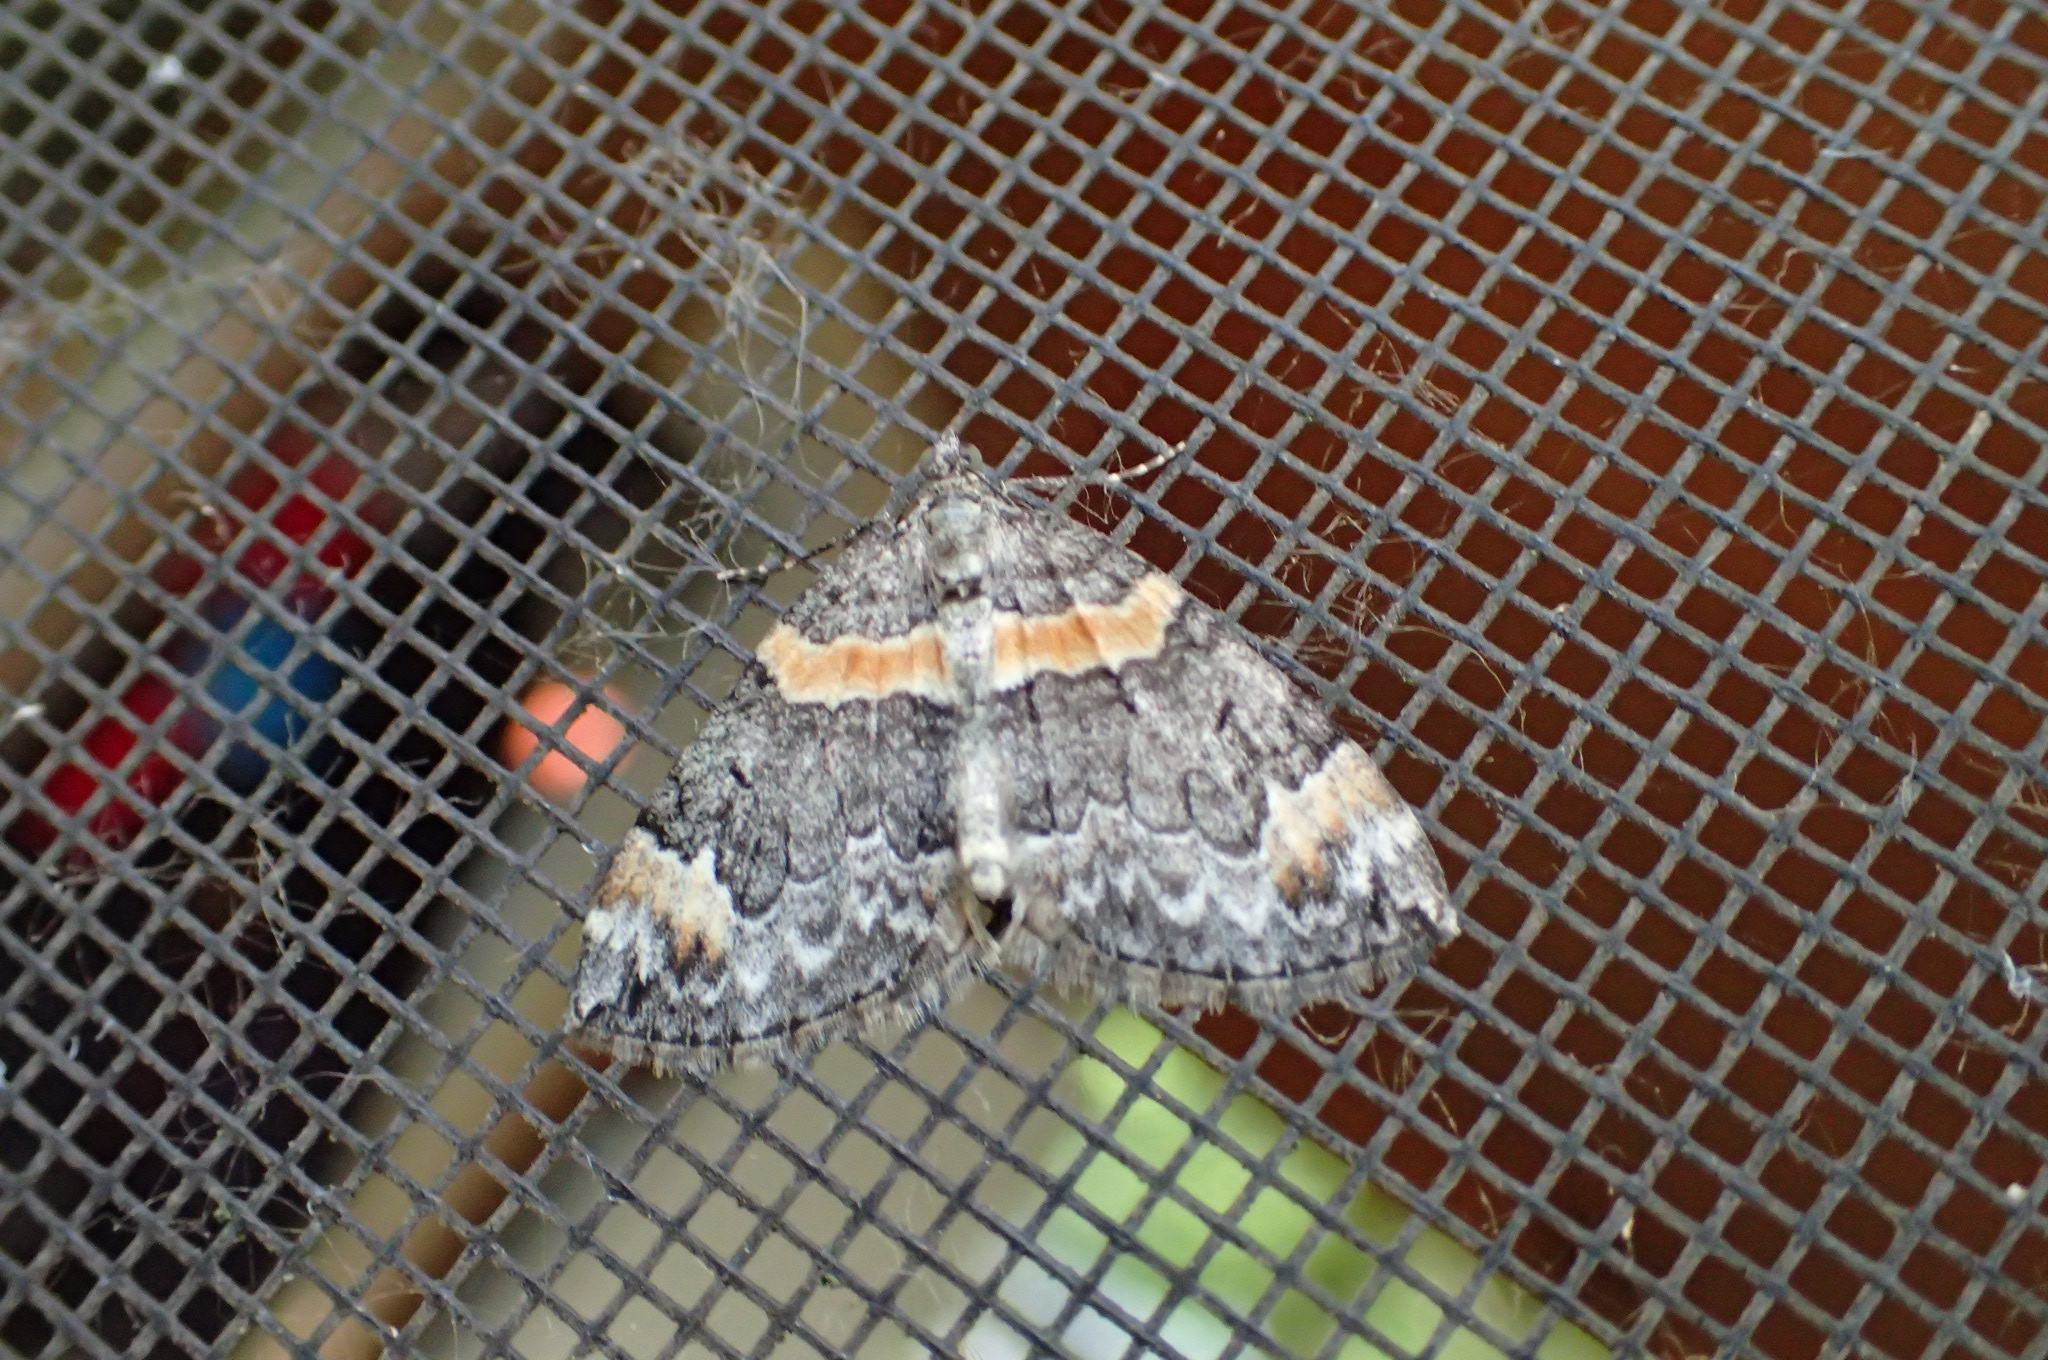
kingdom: Animalia
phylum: Arthropoda
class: Insecta
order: Lepidoptera
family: Geometridae
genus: Dysstroma
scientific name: Dysstroma hersiliata
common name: Orange-barred carpet
